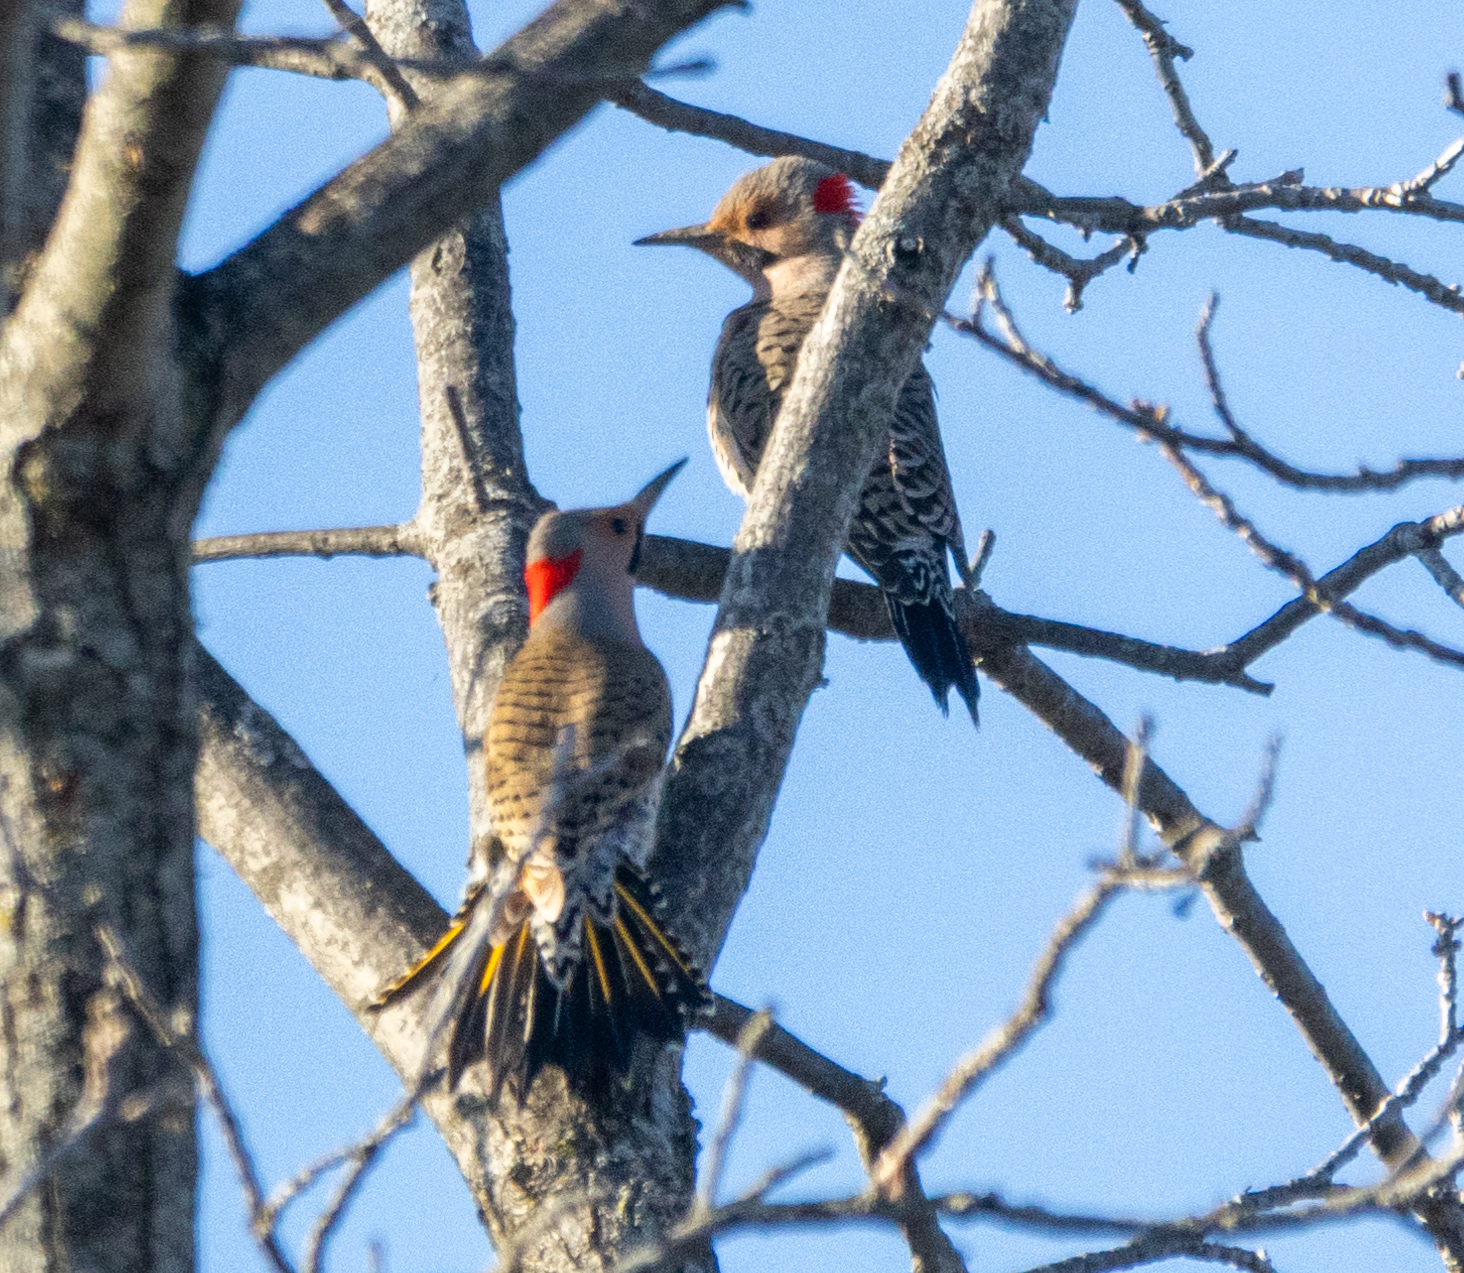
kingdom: Animalia
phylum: Chordata
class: Aves
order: Piciformes
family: Picidae
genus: Colaptes
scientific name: Colaptes auratus
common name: Northern flicker
